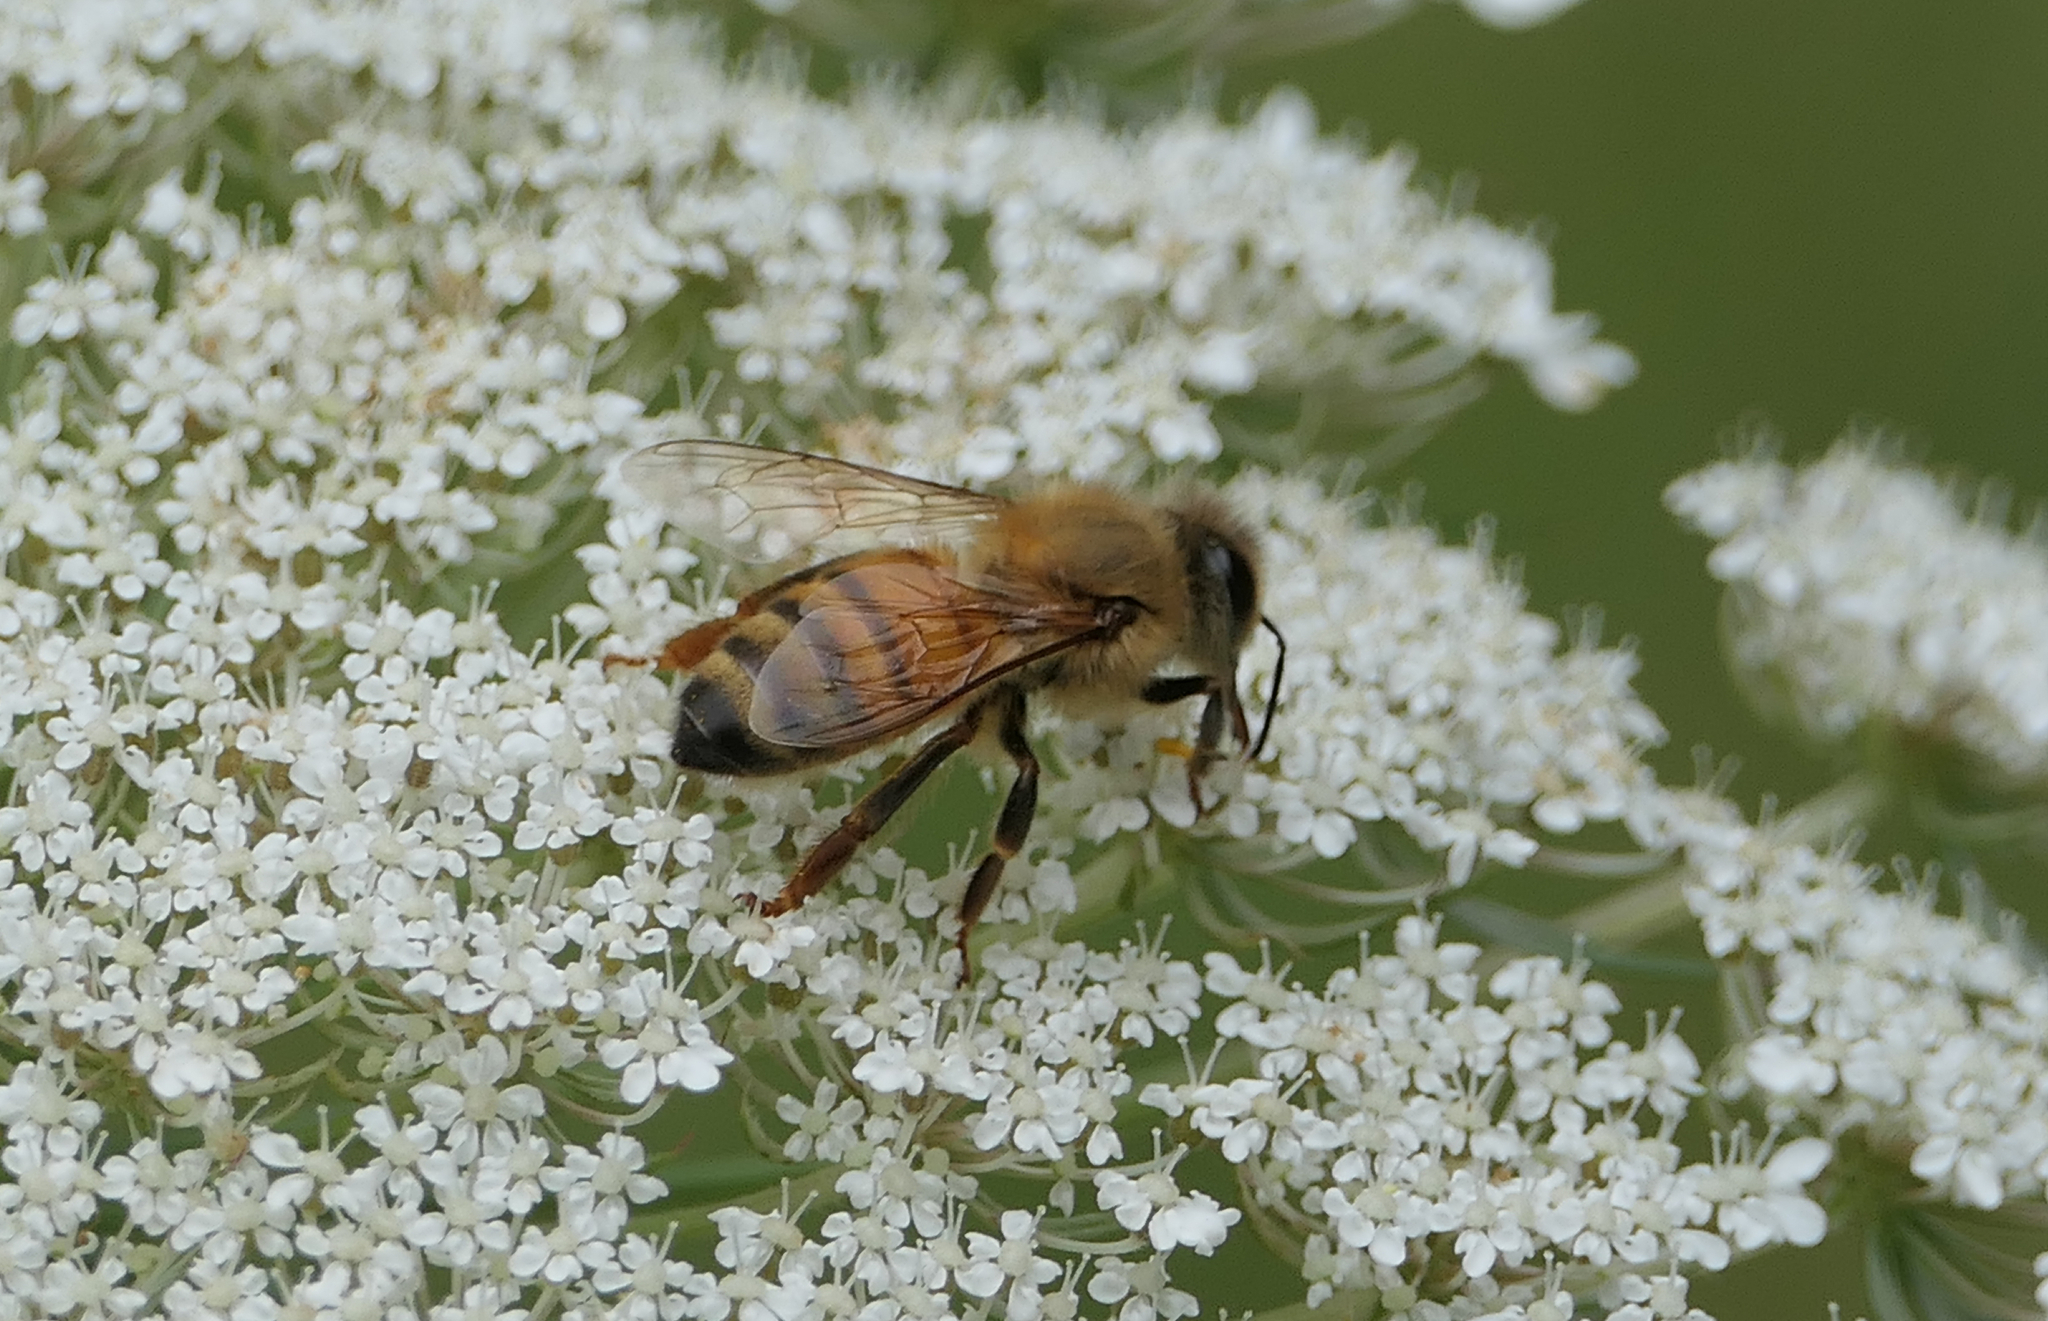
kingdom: Animalia
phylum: Arthropoda
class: Insecta
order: Hymenoptera
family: Apidae
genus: Apis
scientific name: Apis mellifera
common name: Honey bee
